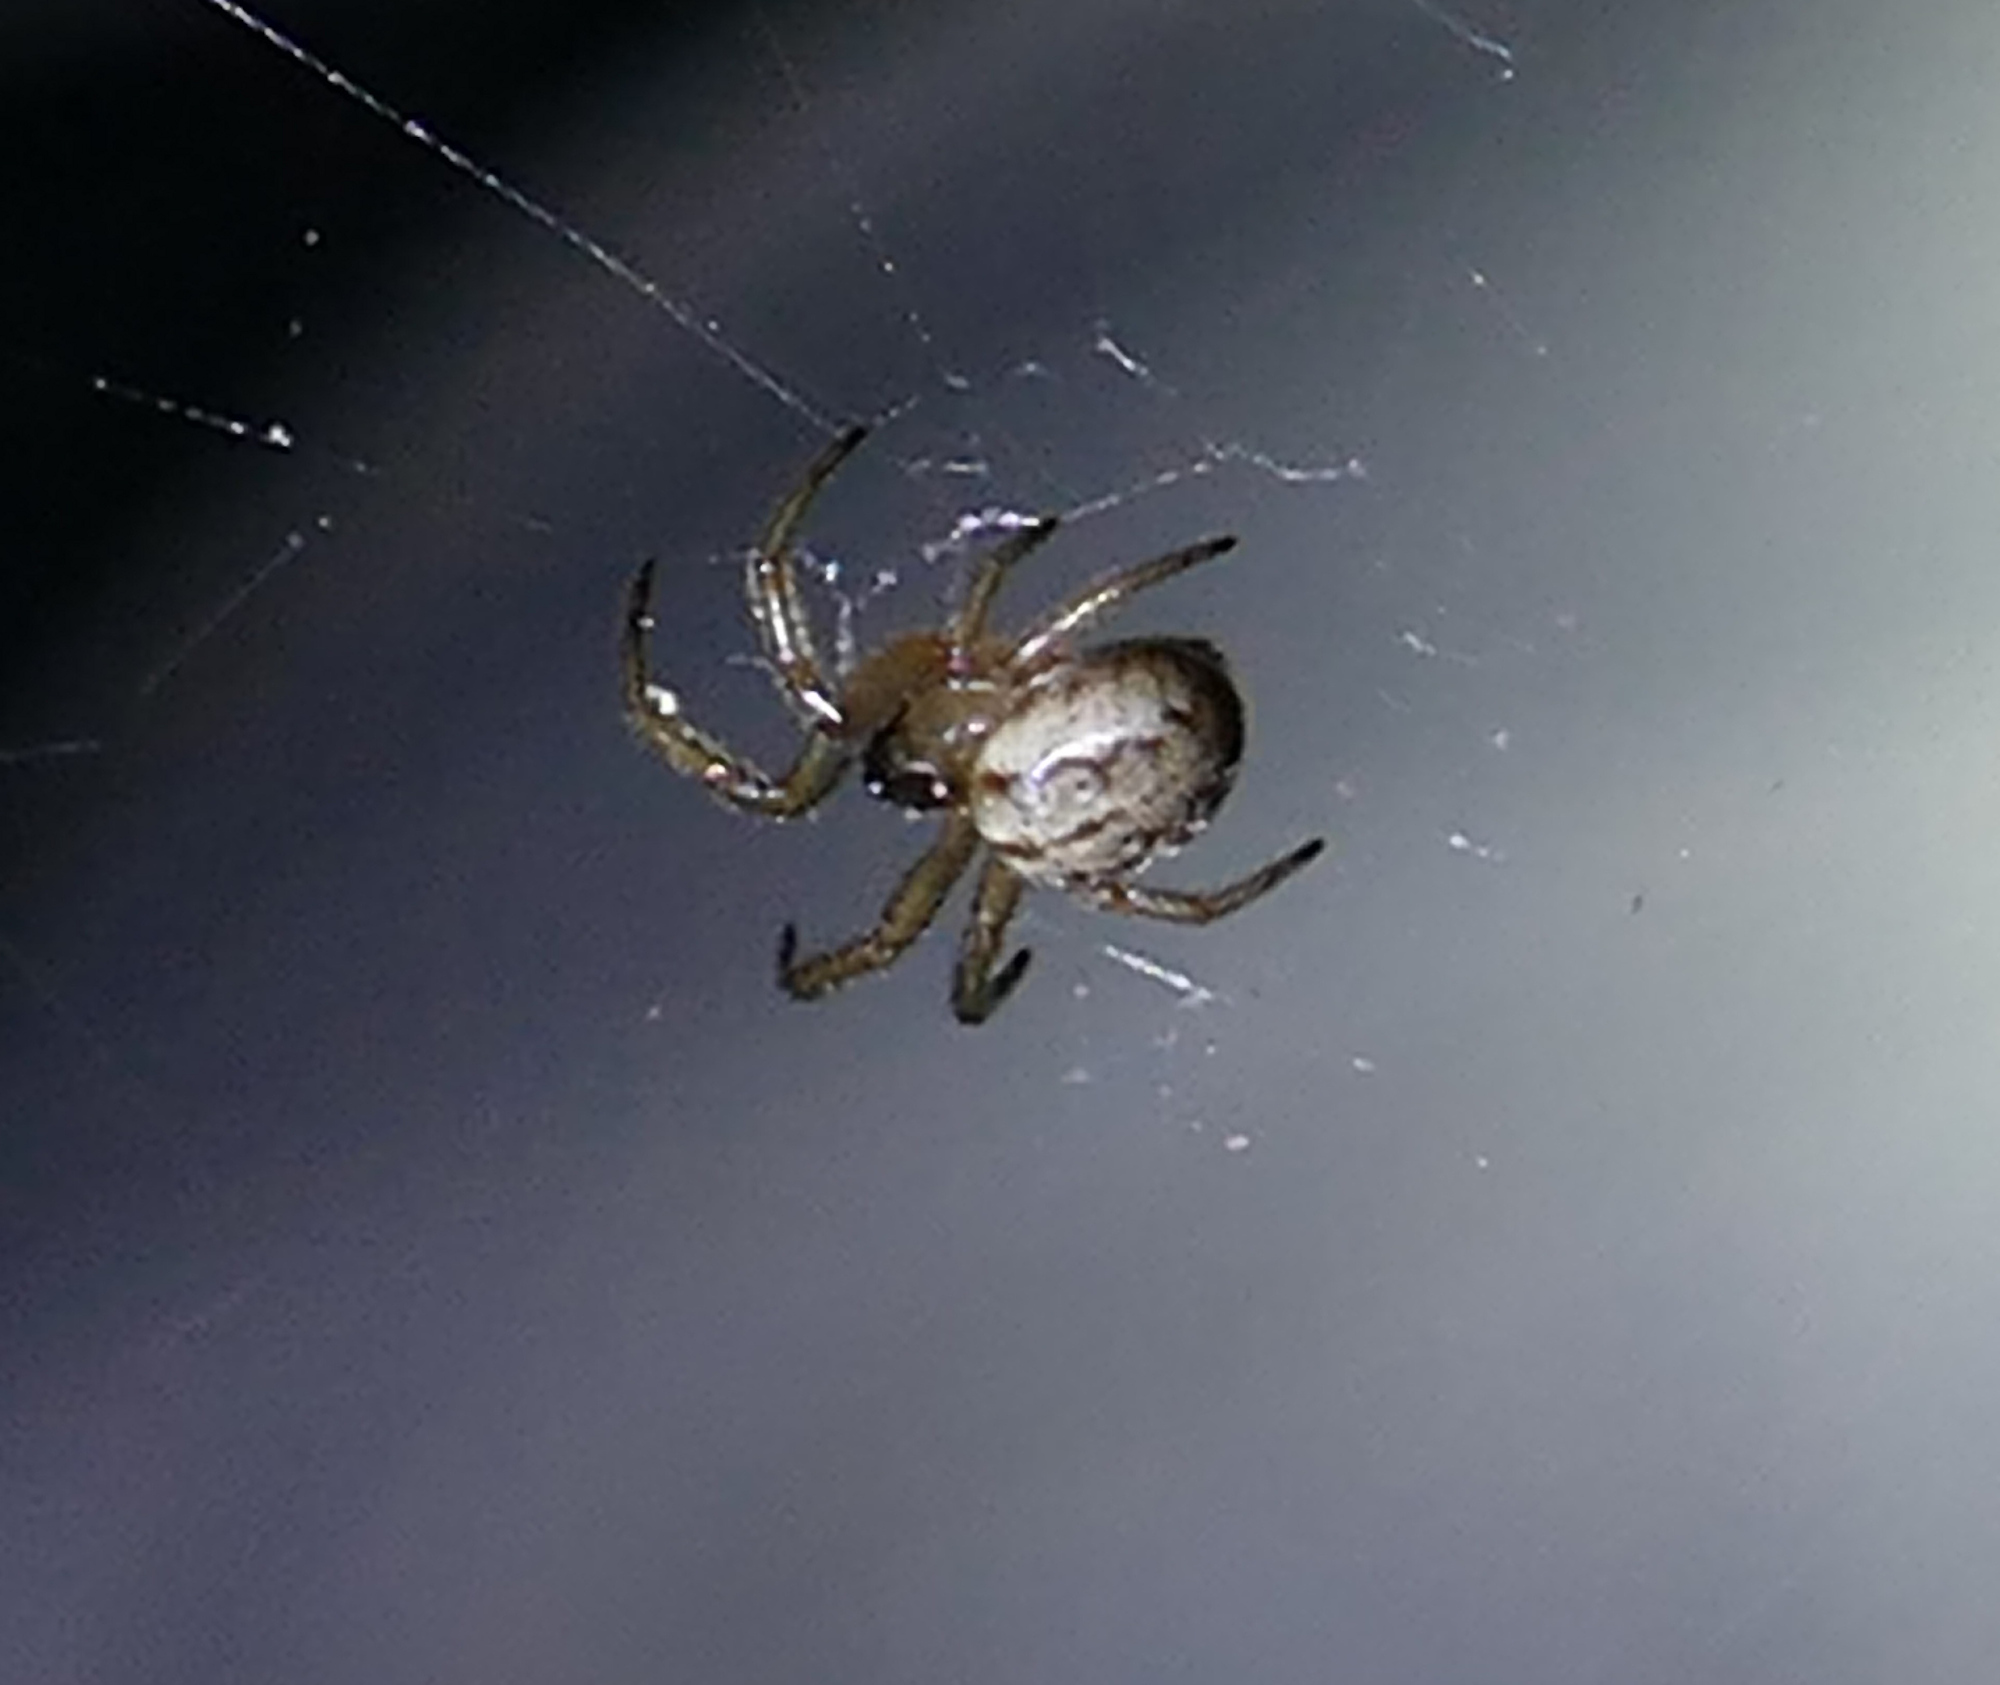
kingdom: Animalia
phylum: Arthropoda
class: Arachnida
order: Araneae
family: Araneidae
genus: Metazygia
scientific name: Metazygia wittfeldae
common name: Orb weavers
